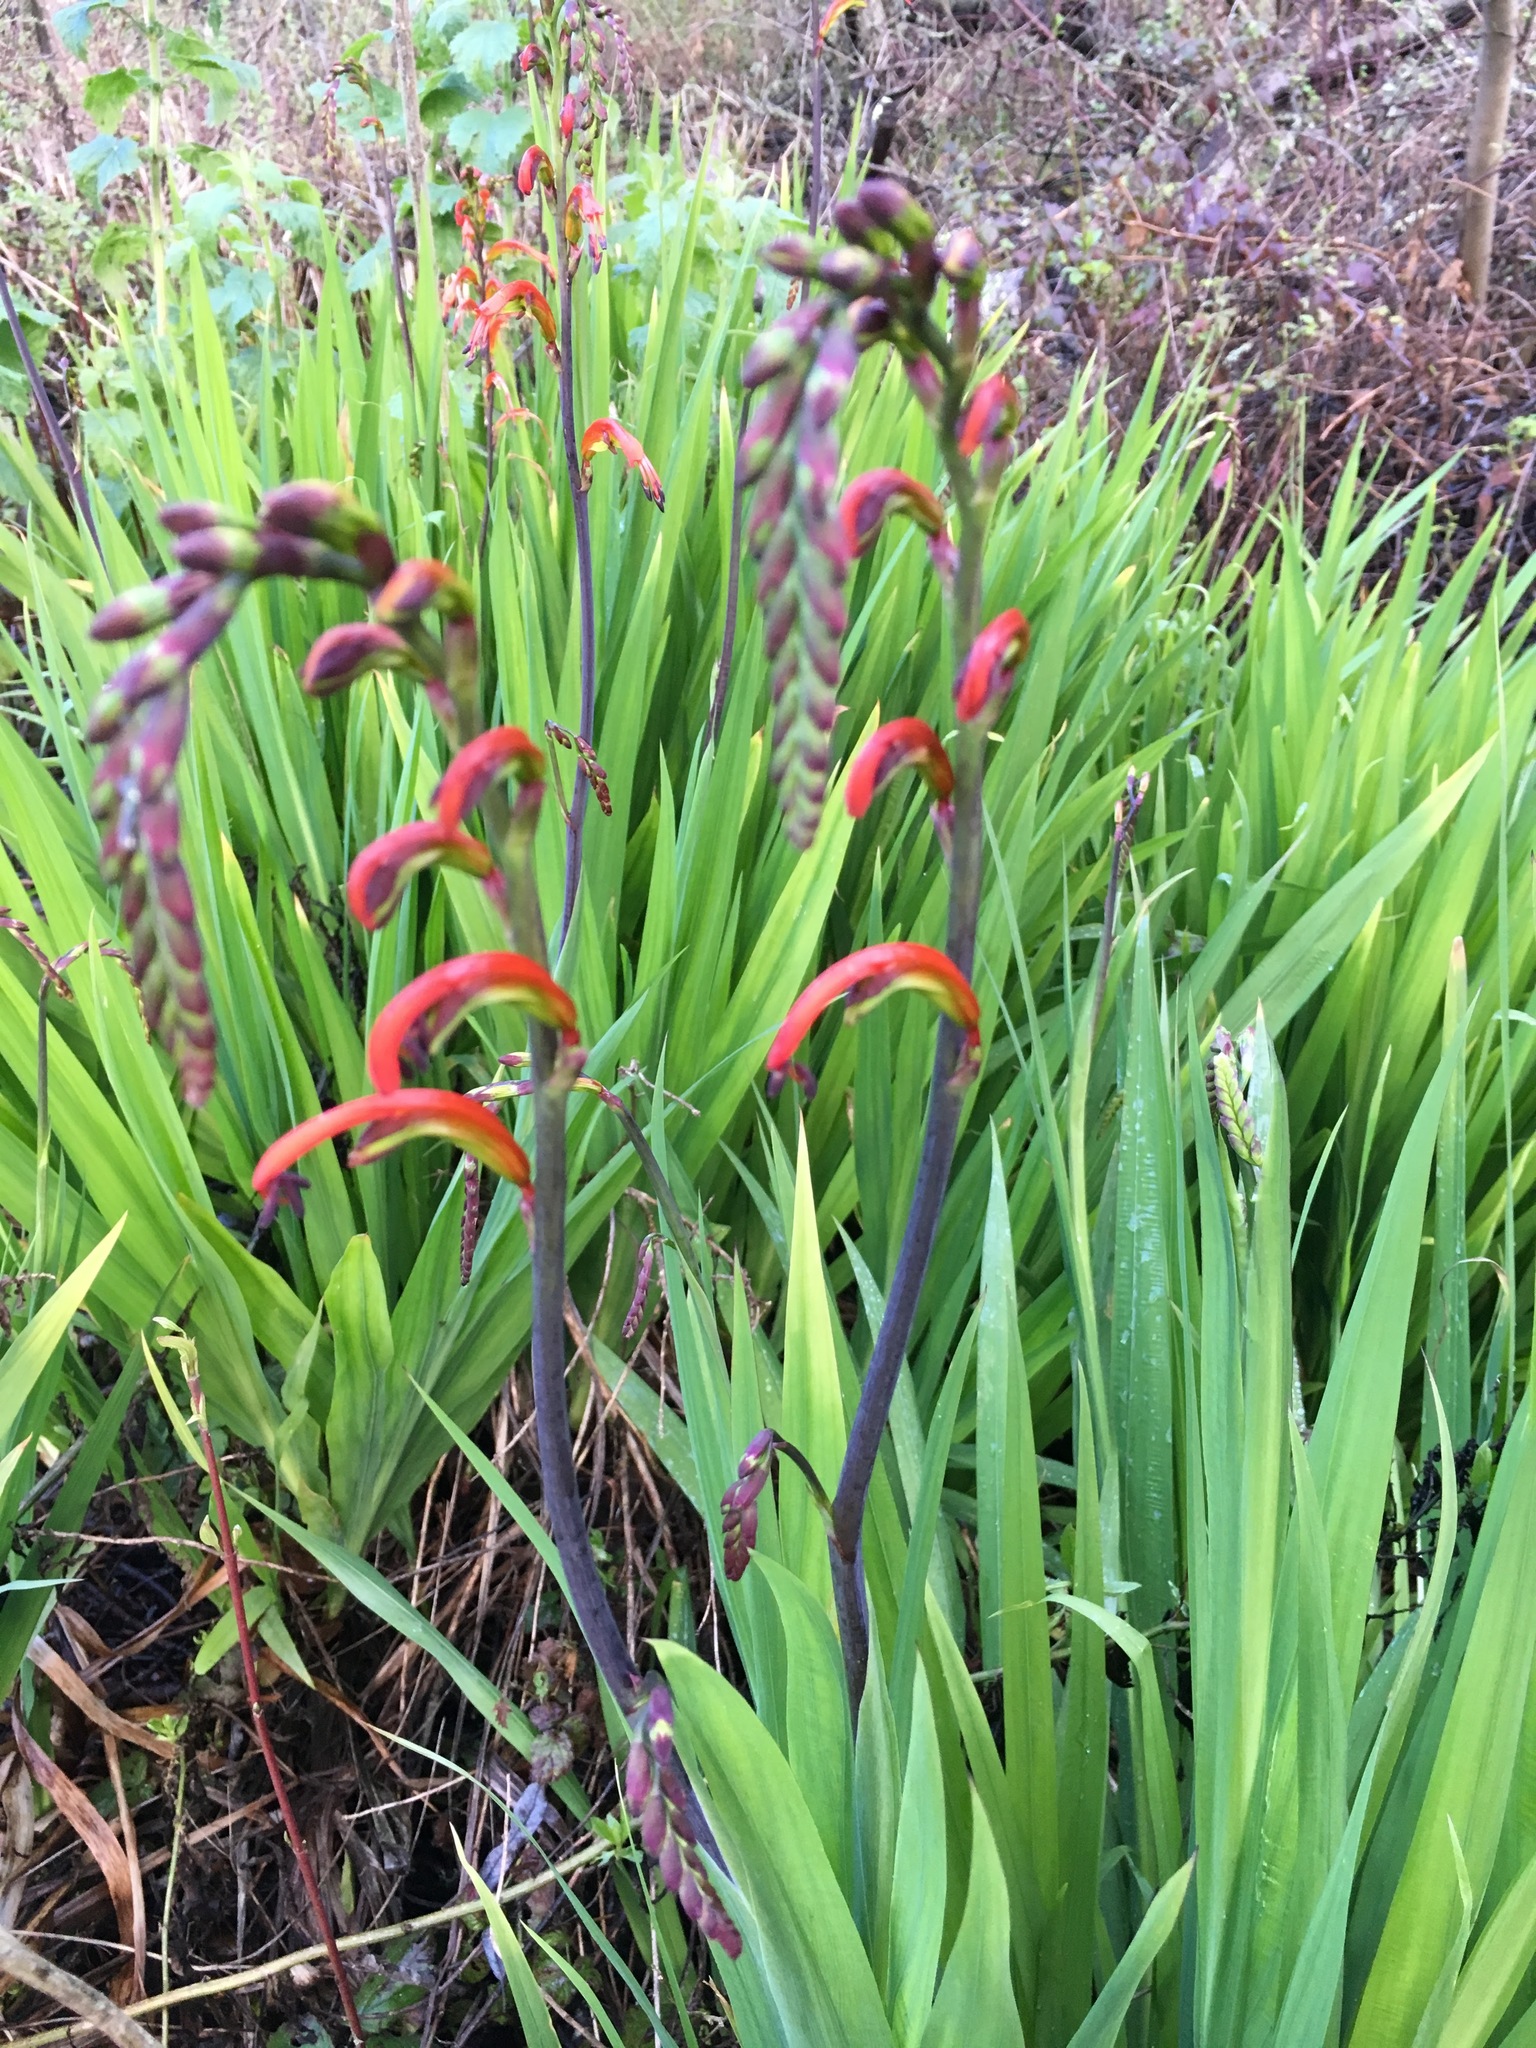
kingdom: Plantae
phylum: Tracheophyta
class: Liliopsida
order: Asparagales
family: Iridaceae
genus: Chasmanthe
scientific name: Chasmanthe bicolor
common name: Bicolor cobra lily
